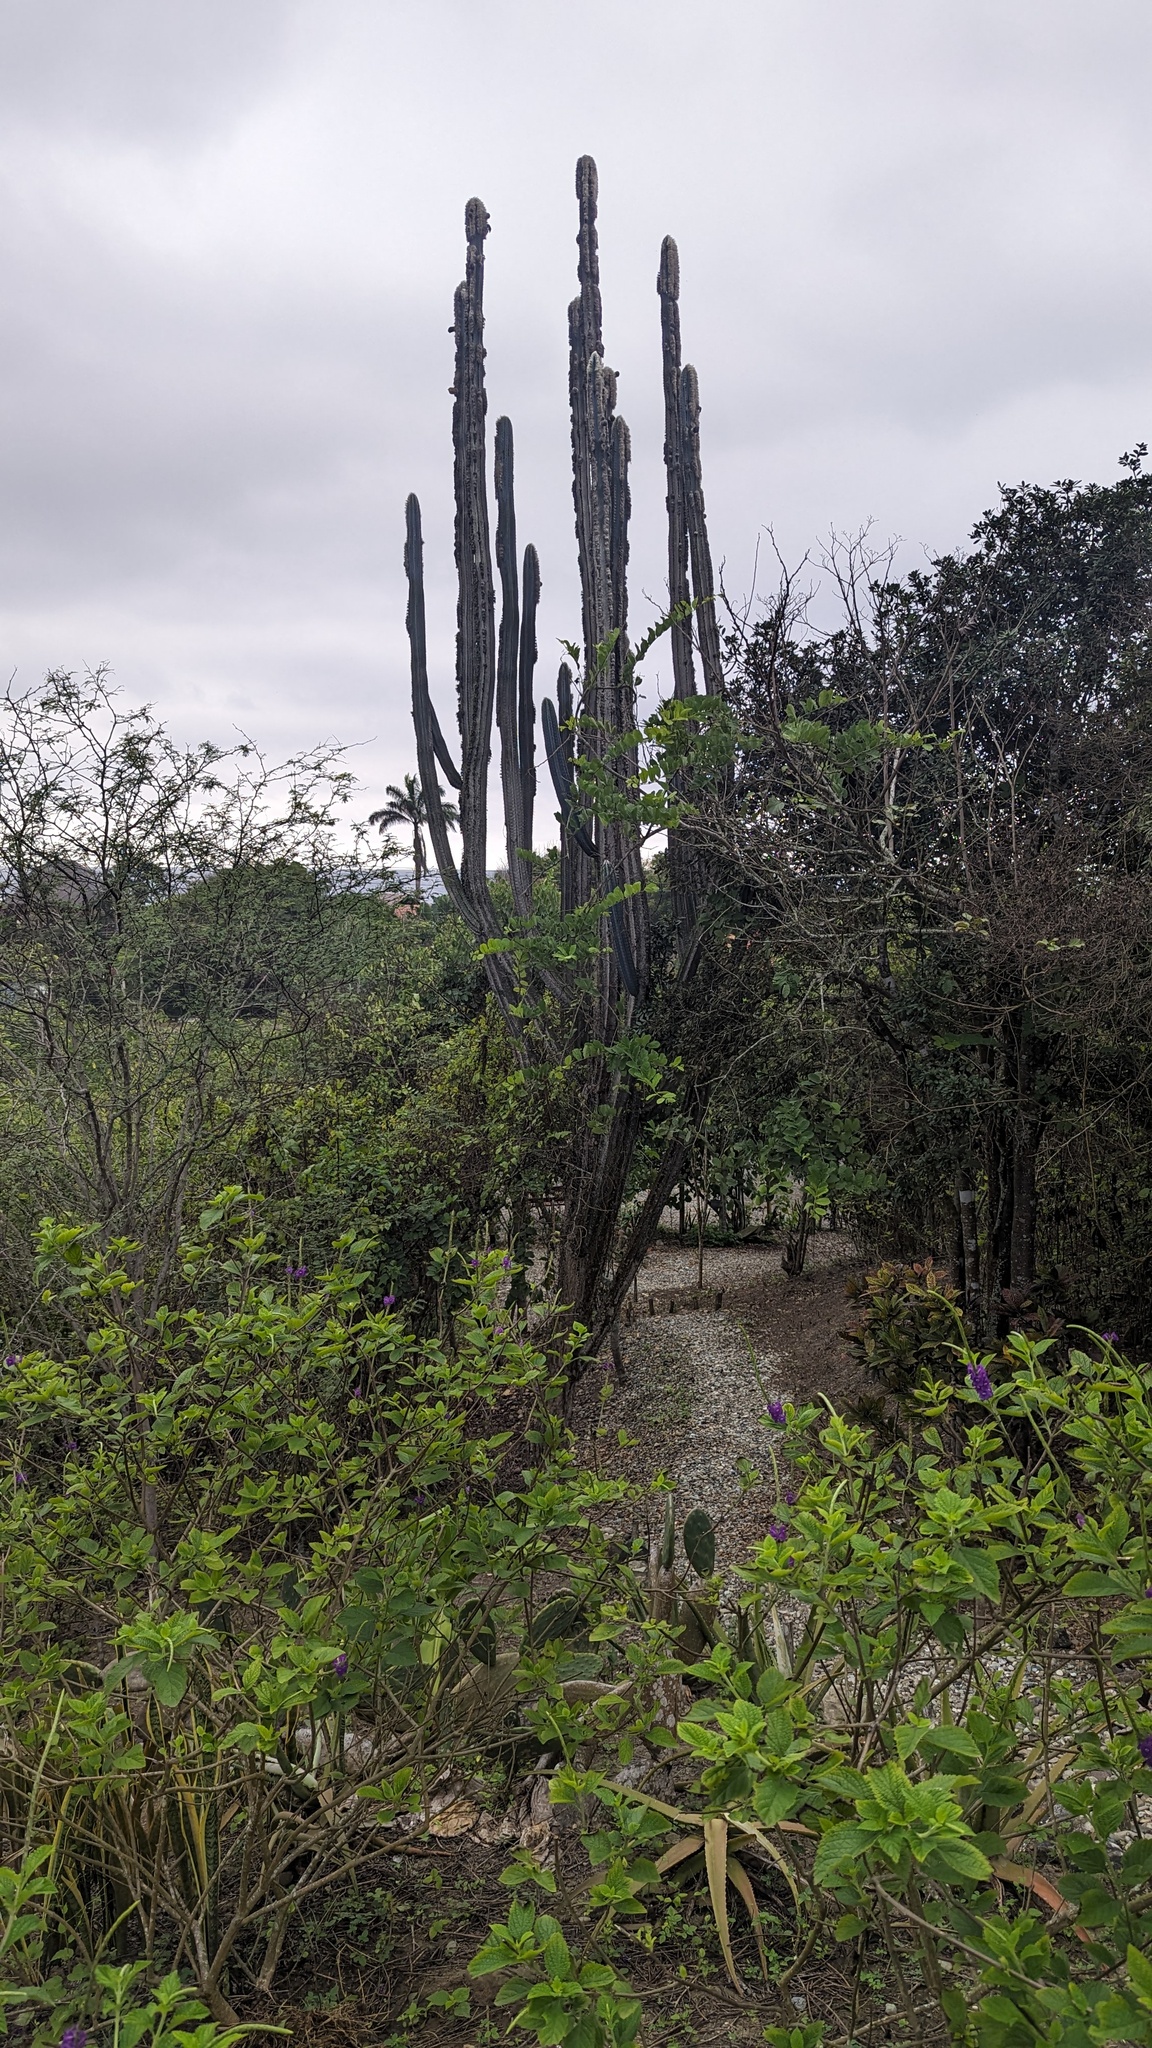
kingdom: Plantae
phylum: Tracheophyta
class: Magnoliopsida
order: Caryophyllales
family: Cactaceae
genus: Armatocereus
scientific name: Armatocereus cartwrightianus
